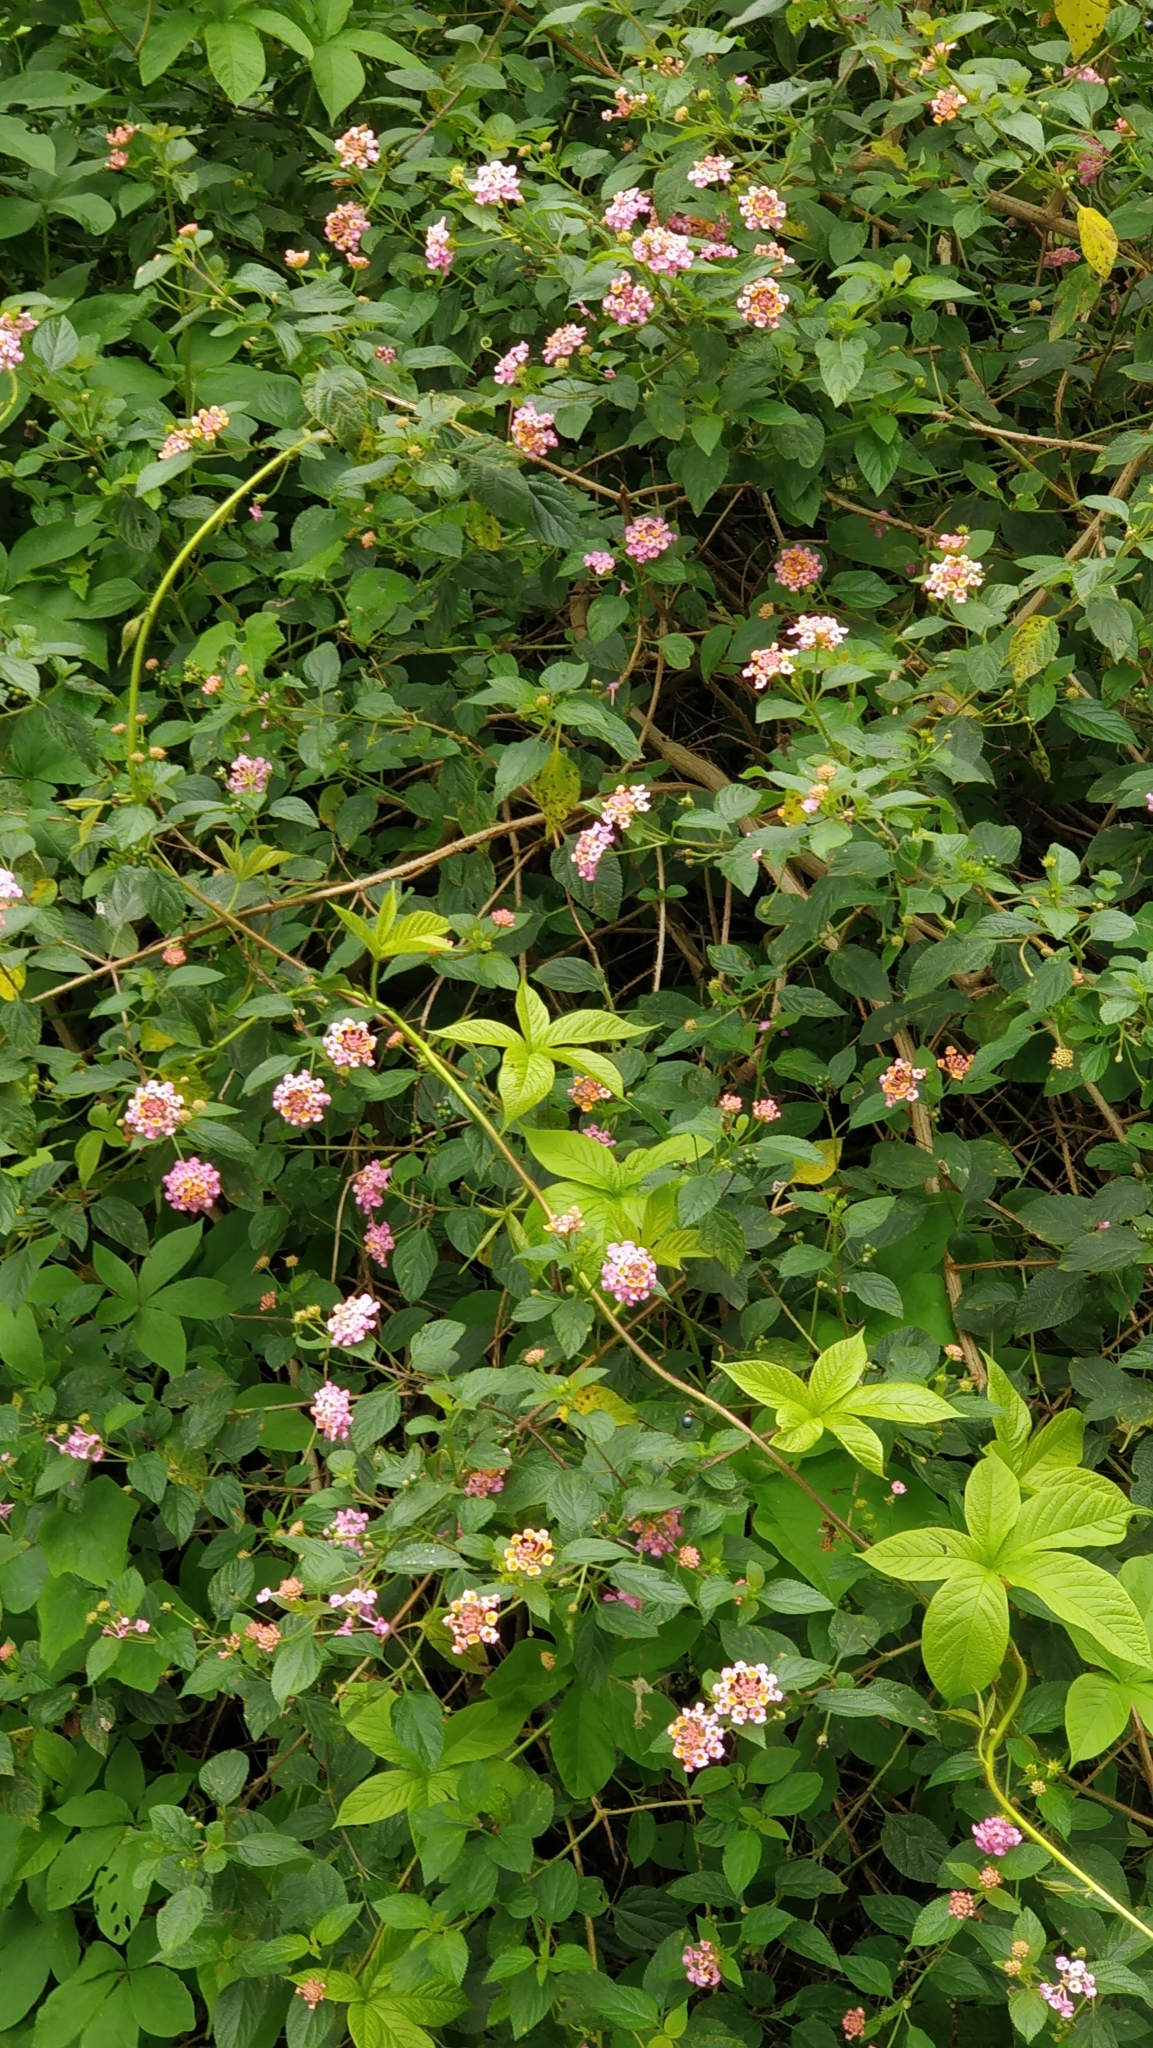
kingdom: Plantae
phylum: Tracheophyta
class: Magnoliopsida
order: Lamiales
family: Verbenaceae
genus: Lantana
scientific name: Lantana camara
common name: Lantana
